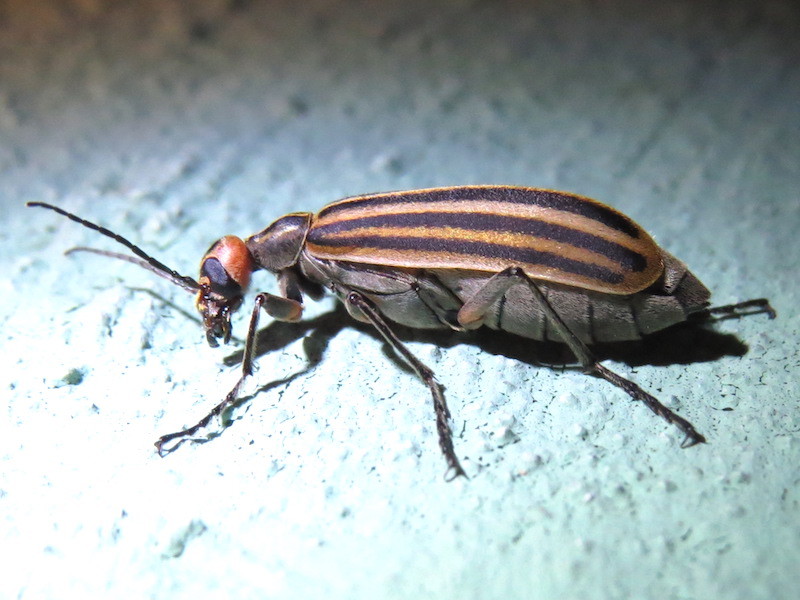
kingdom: Animalia
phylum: Arthropoda
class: Insecta
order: Coleoptera
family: Meloidae
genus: Epicauta
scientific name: Epicauta vittata
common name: Old-fashioned potato beetle
